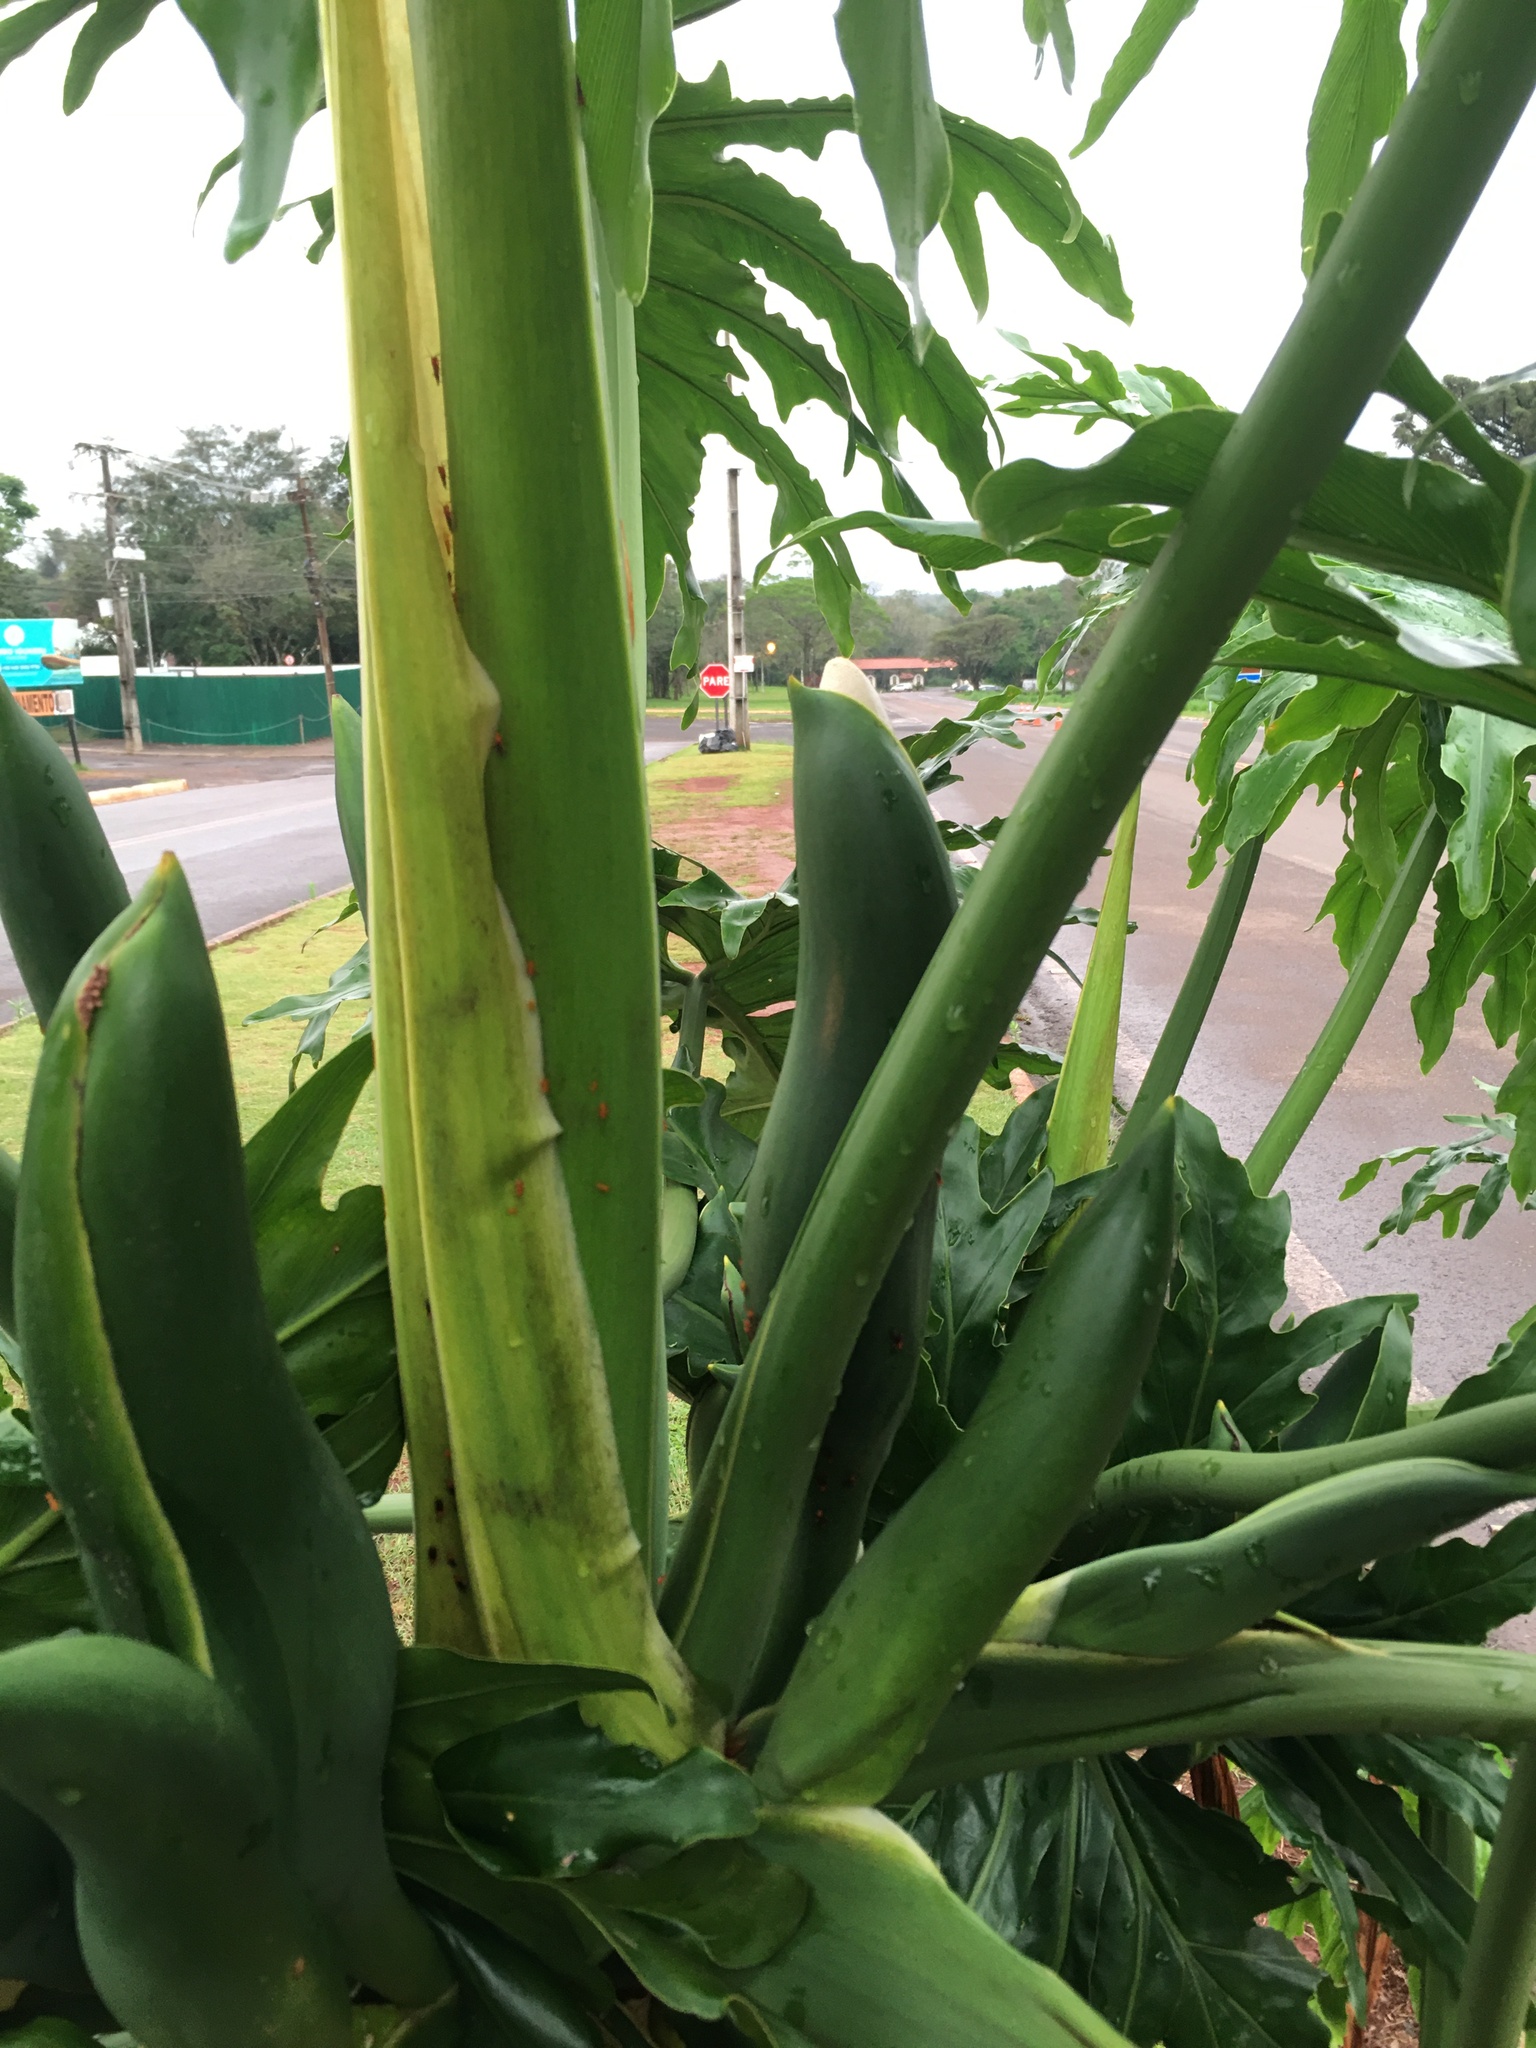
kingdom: Plantae
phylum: Tracheophyta
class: Liliopsida
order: Alismatales
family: Araceae
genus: Thaumatophyllum
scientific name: Thaumatophyllum bipinnatifidum
